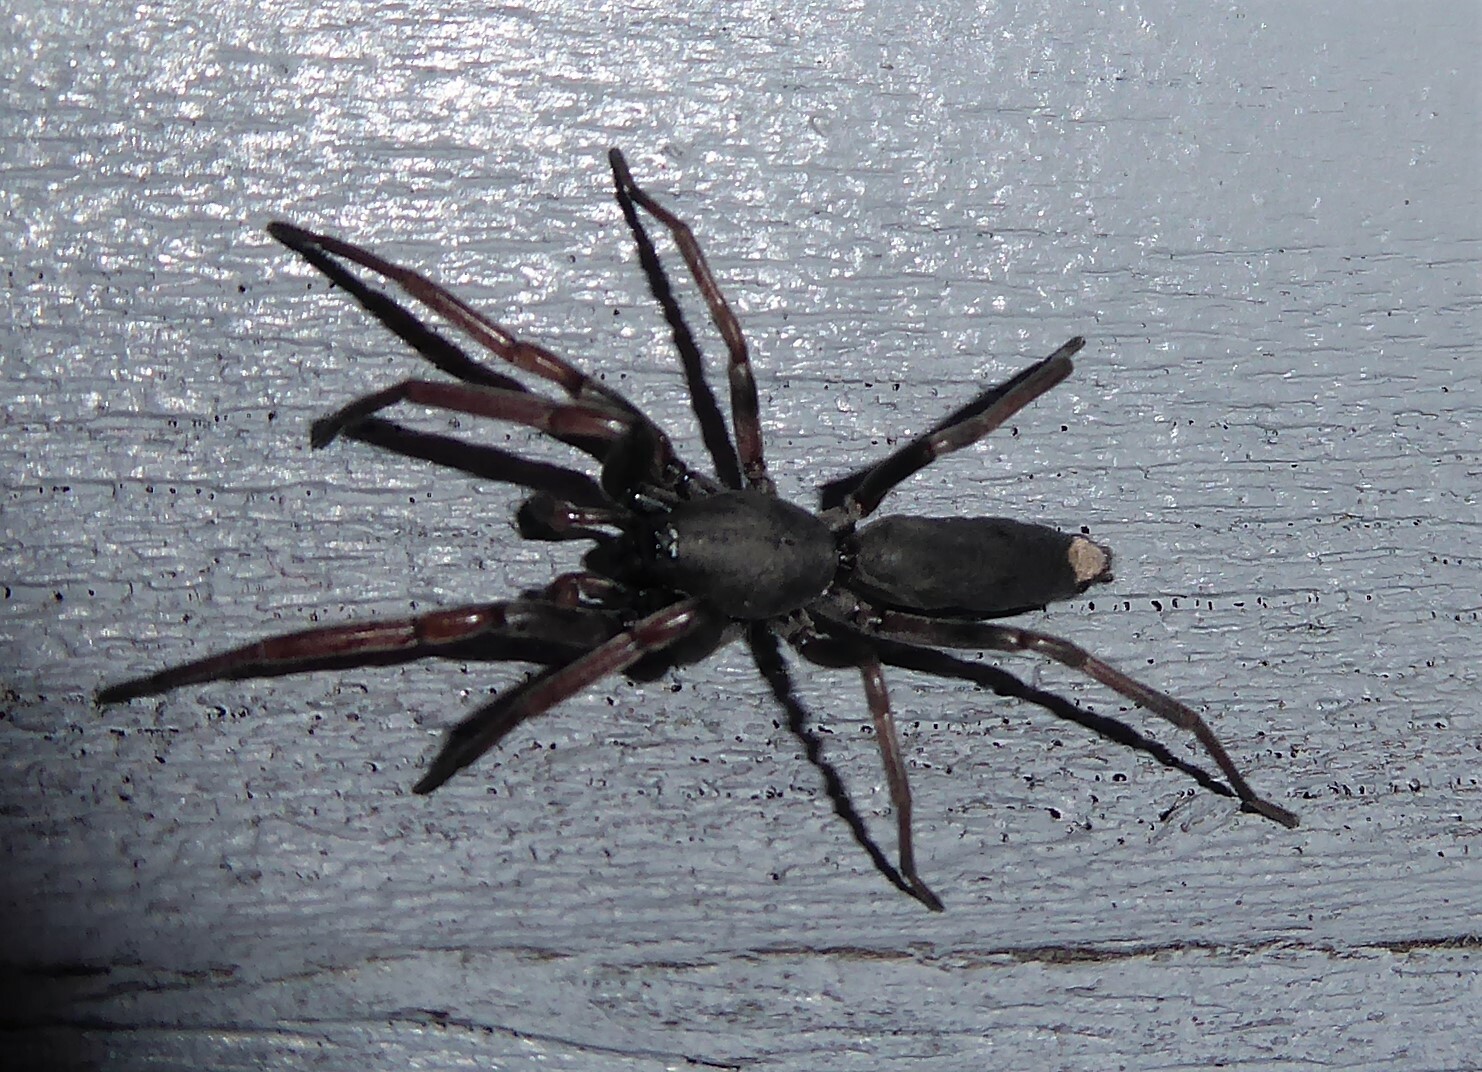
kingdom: Animalia
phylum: Arthropoda
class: Arachnida
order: Araneae
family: Lamponidae
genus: Lampona
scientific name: Lampona cylindrata
